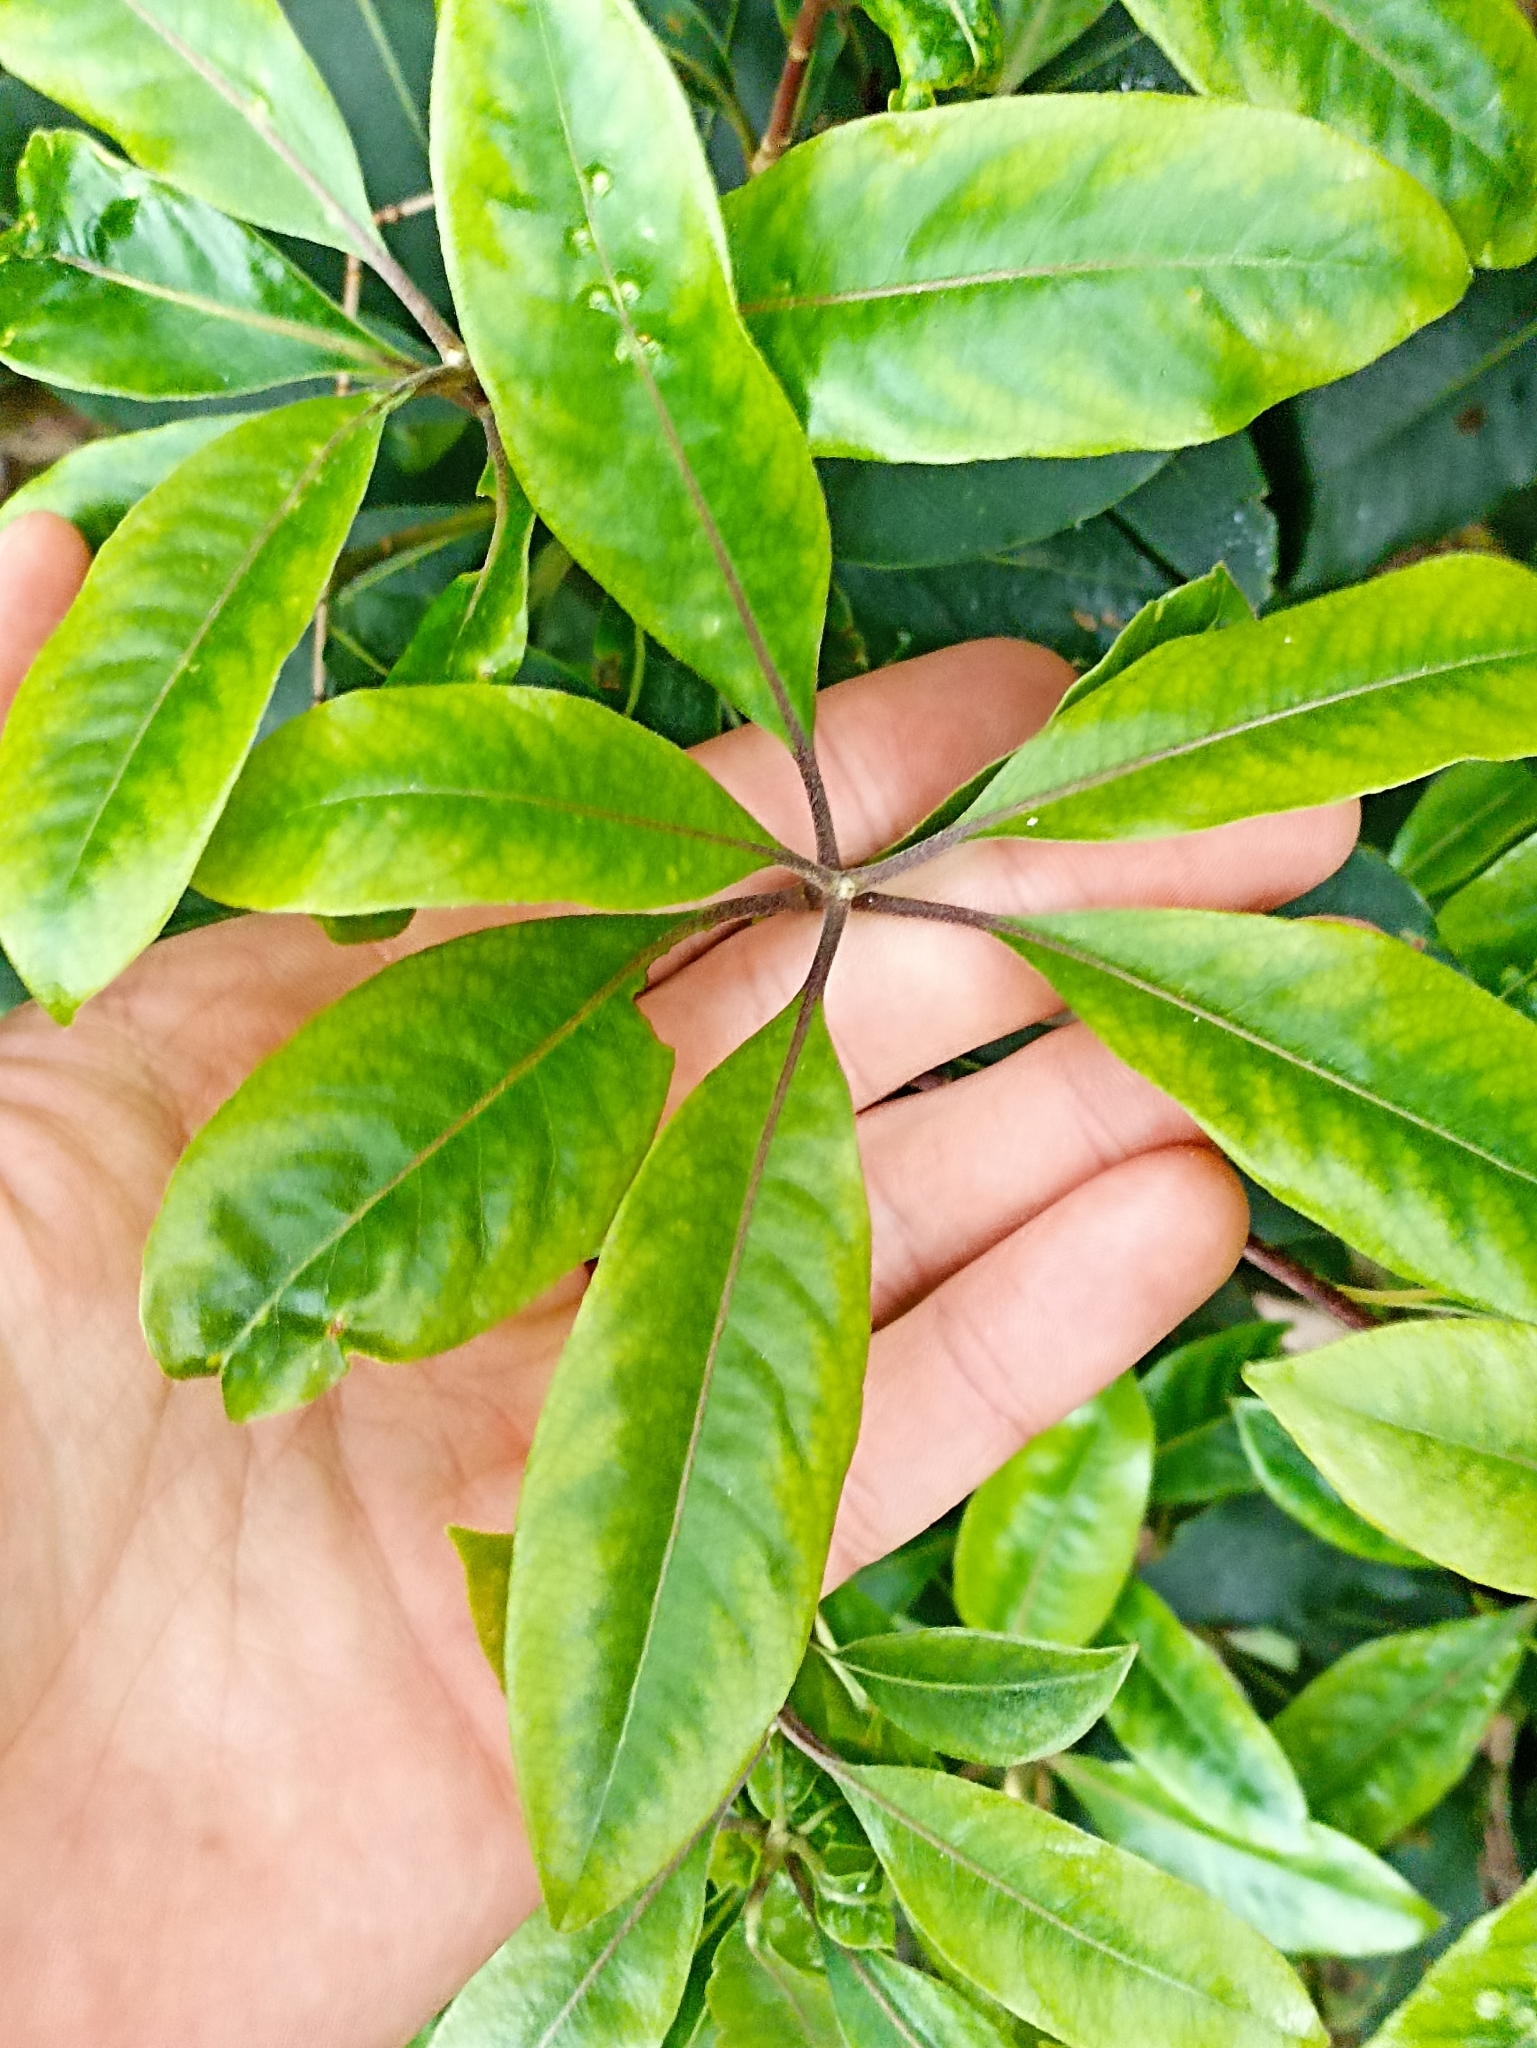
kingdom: Plantae
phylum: Tracheophyta
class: Magnoliopsida
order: Apiales
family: Pittosporaceae
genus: Pittosporum
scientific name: Pittosporum undulatum
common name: Australian cheesewood
